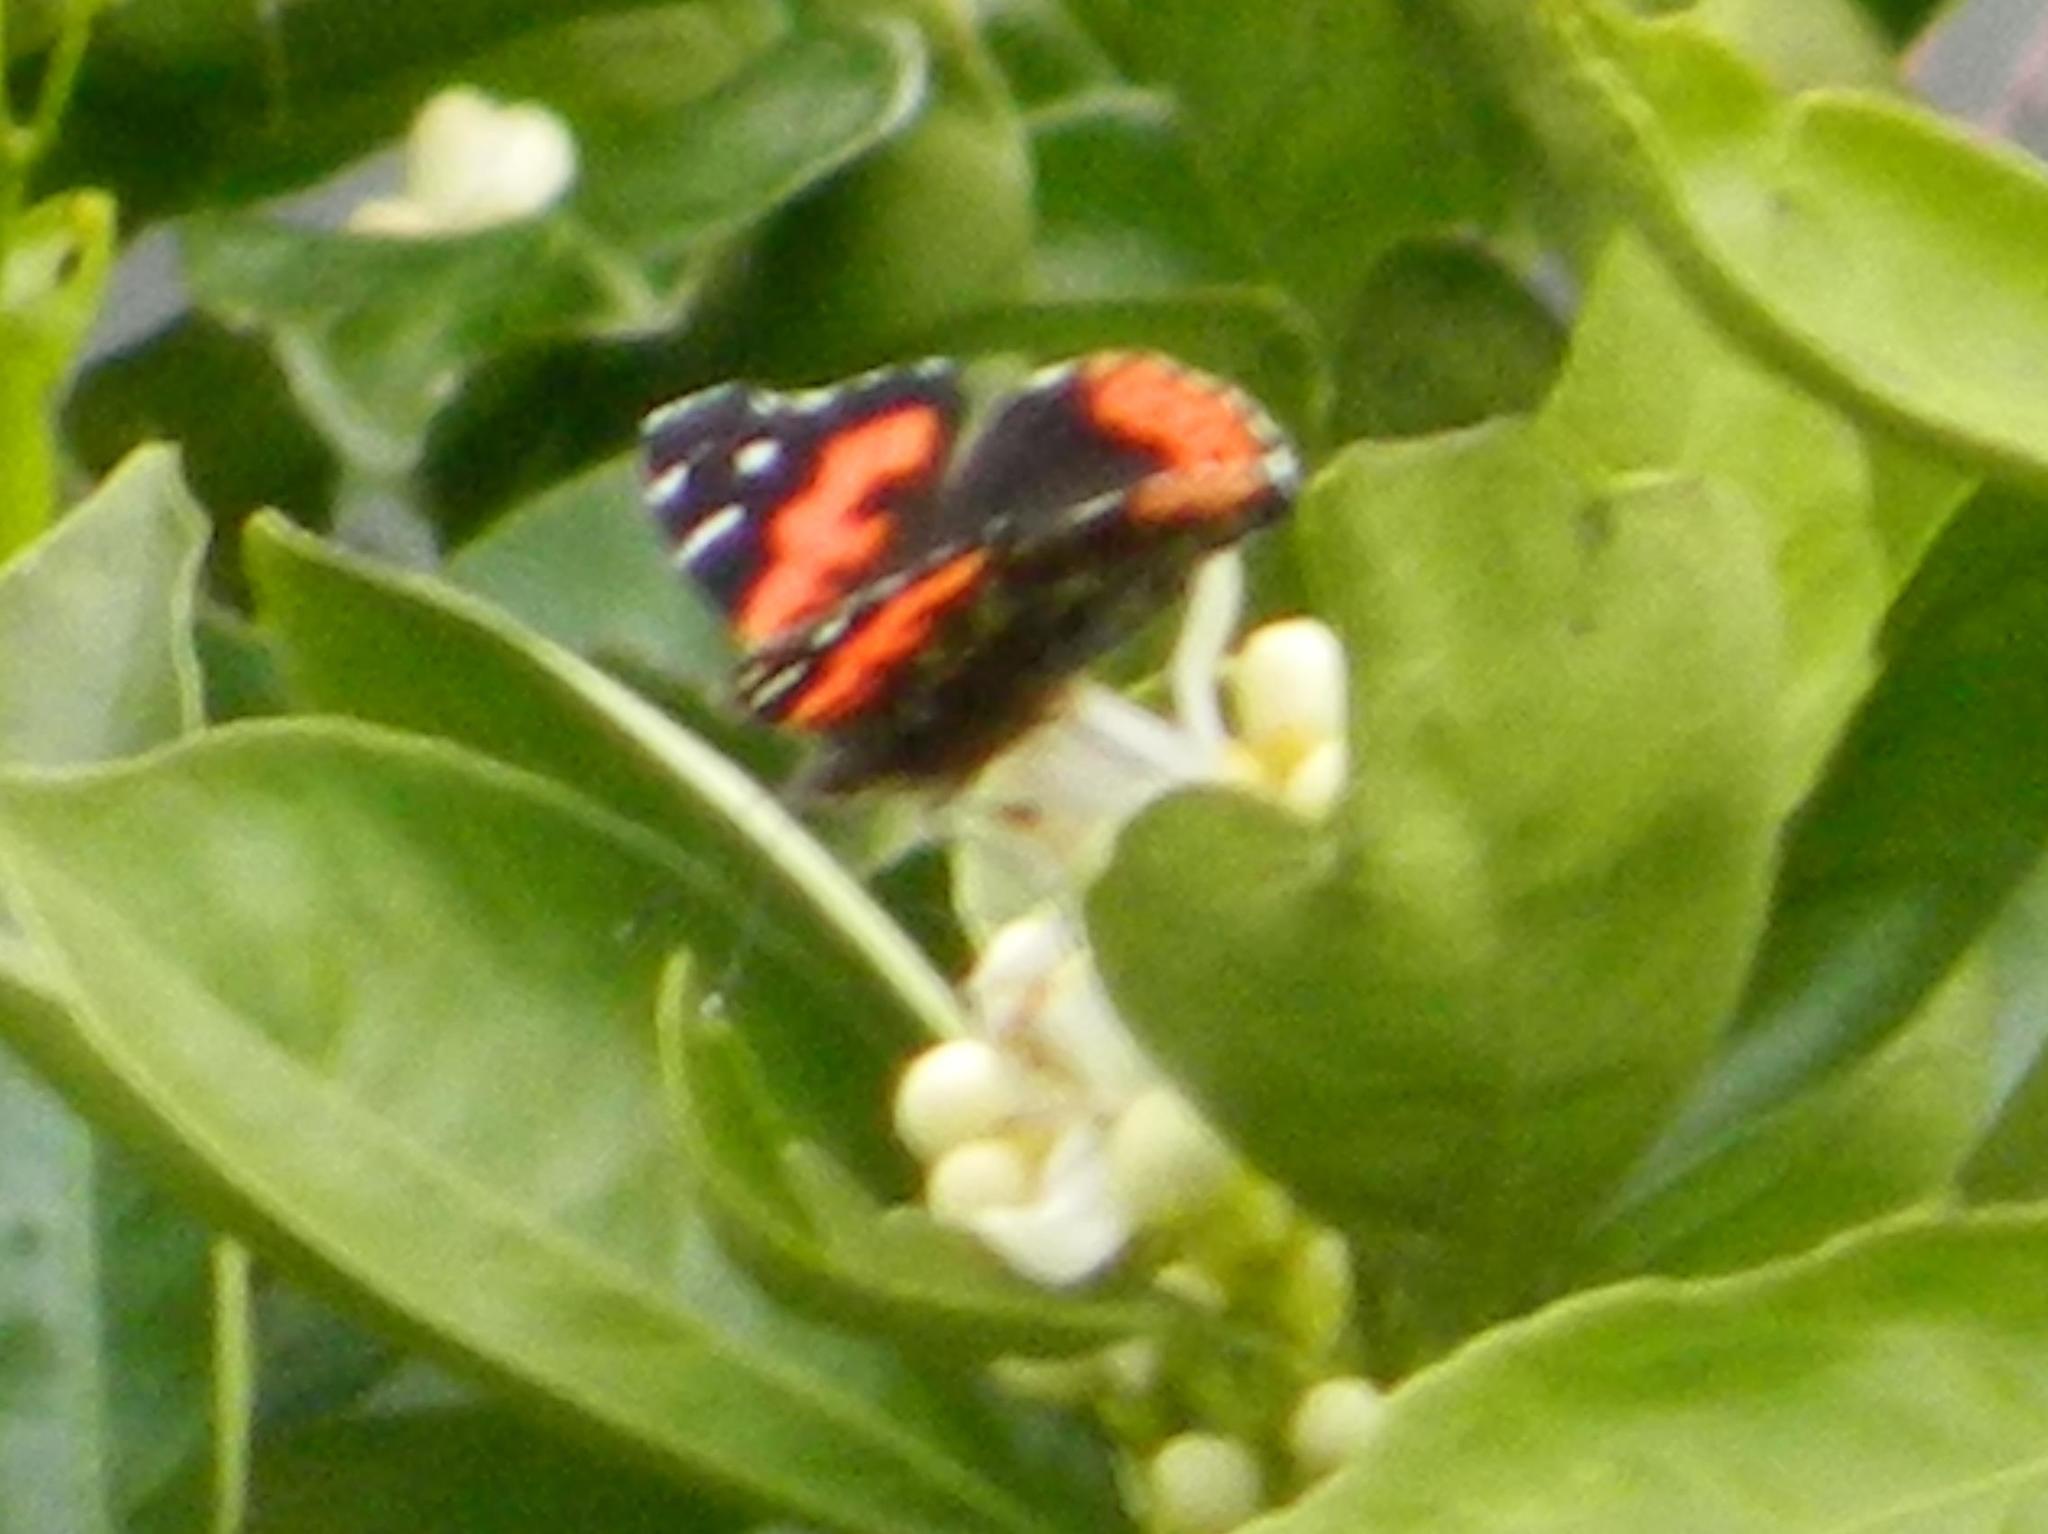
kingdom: Animalia
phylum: Arthropoda
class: Insecta
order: Lepidoptera
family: Nymphalidae
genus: Vanessa
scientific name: Vanessa vulcania
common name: Canary red admiral
